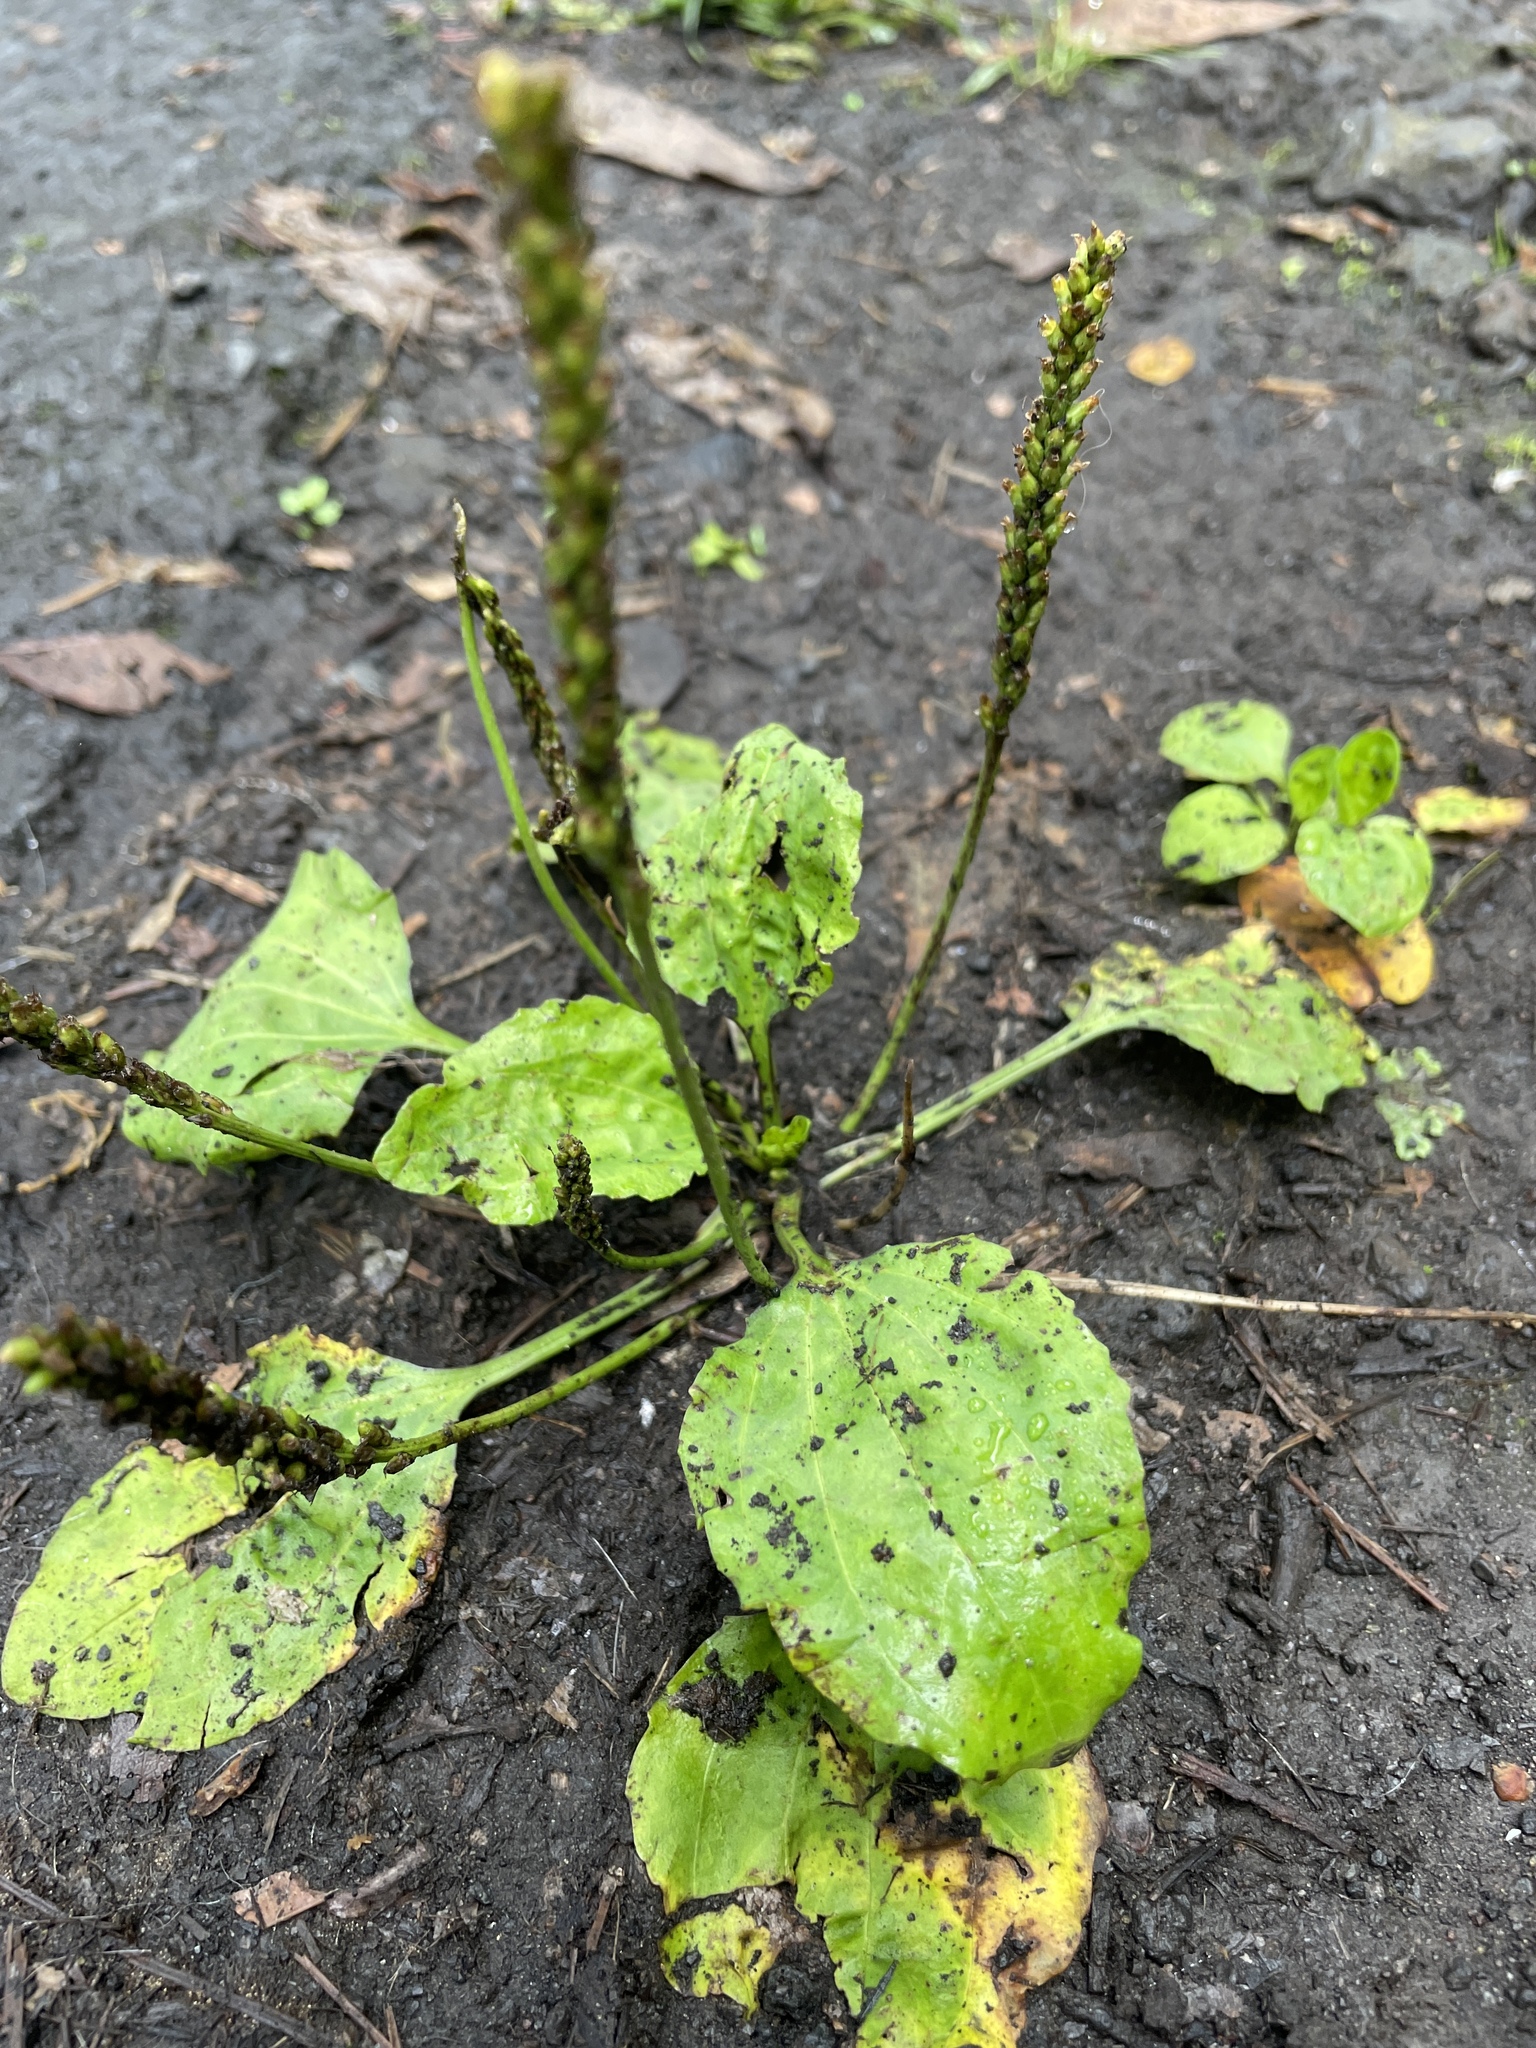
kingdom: Plantae
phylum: Tracheophyta
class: Magnoliopsida
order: Lamiales
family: Plantaginaceae
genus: Plantago
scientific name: Plantago major
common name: Common plantain
